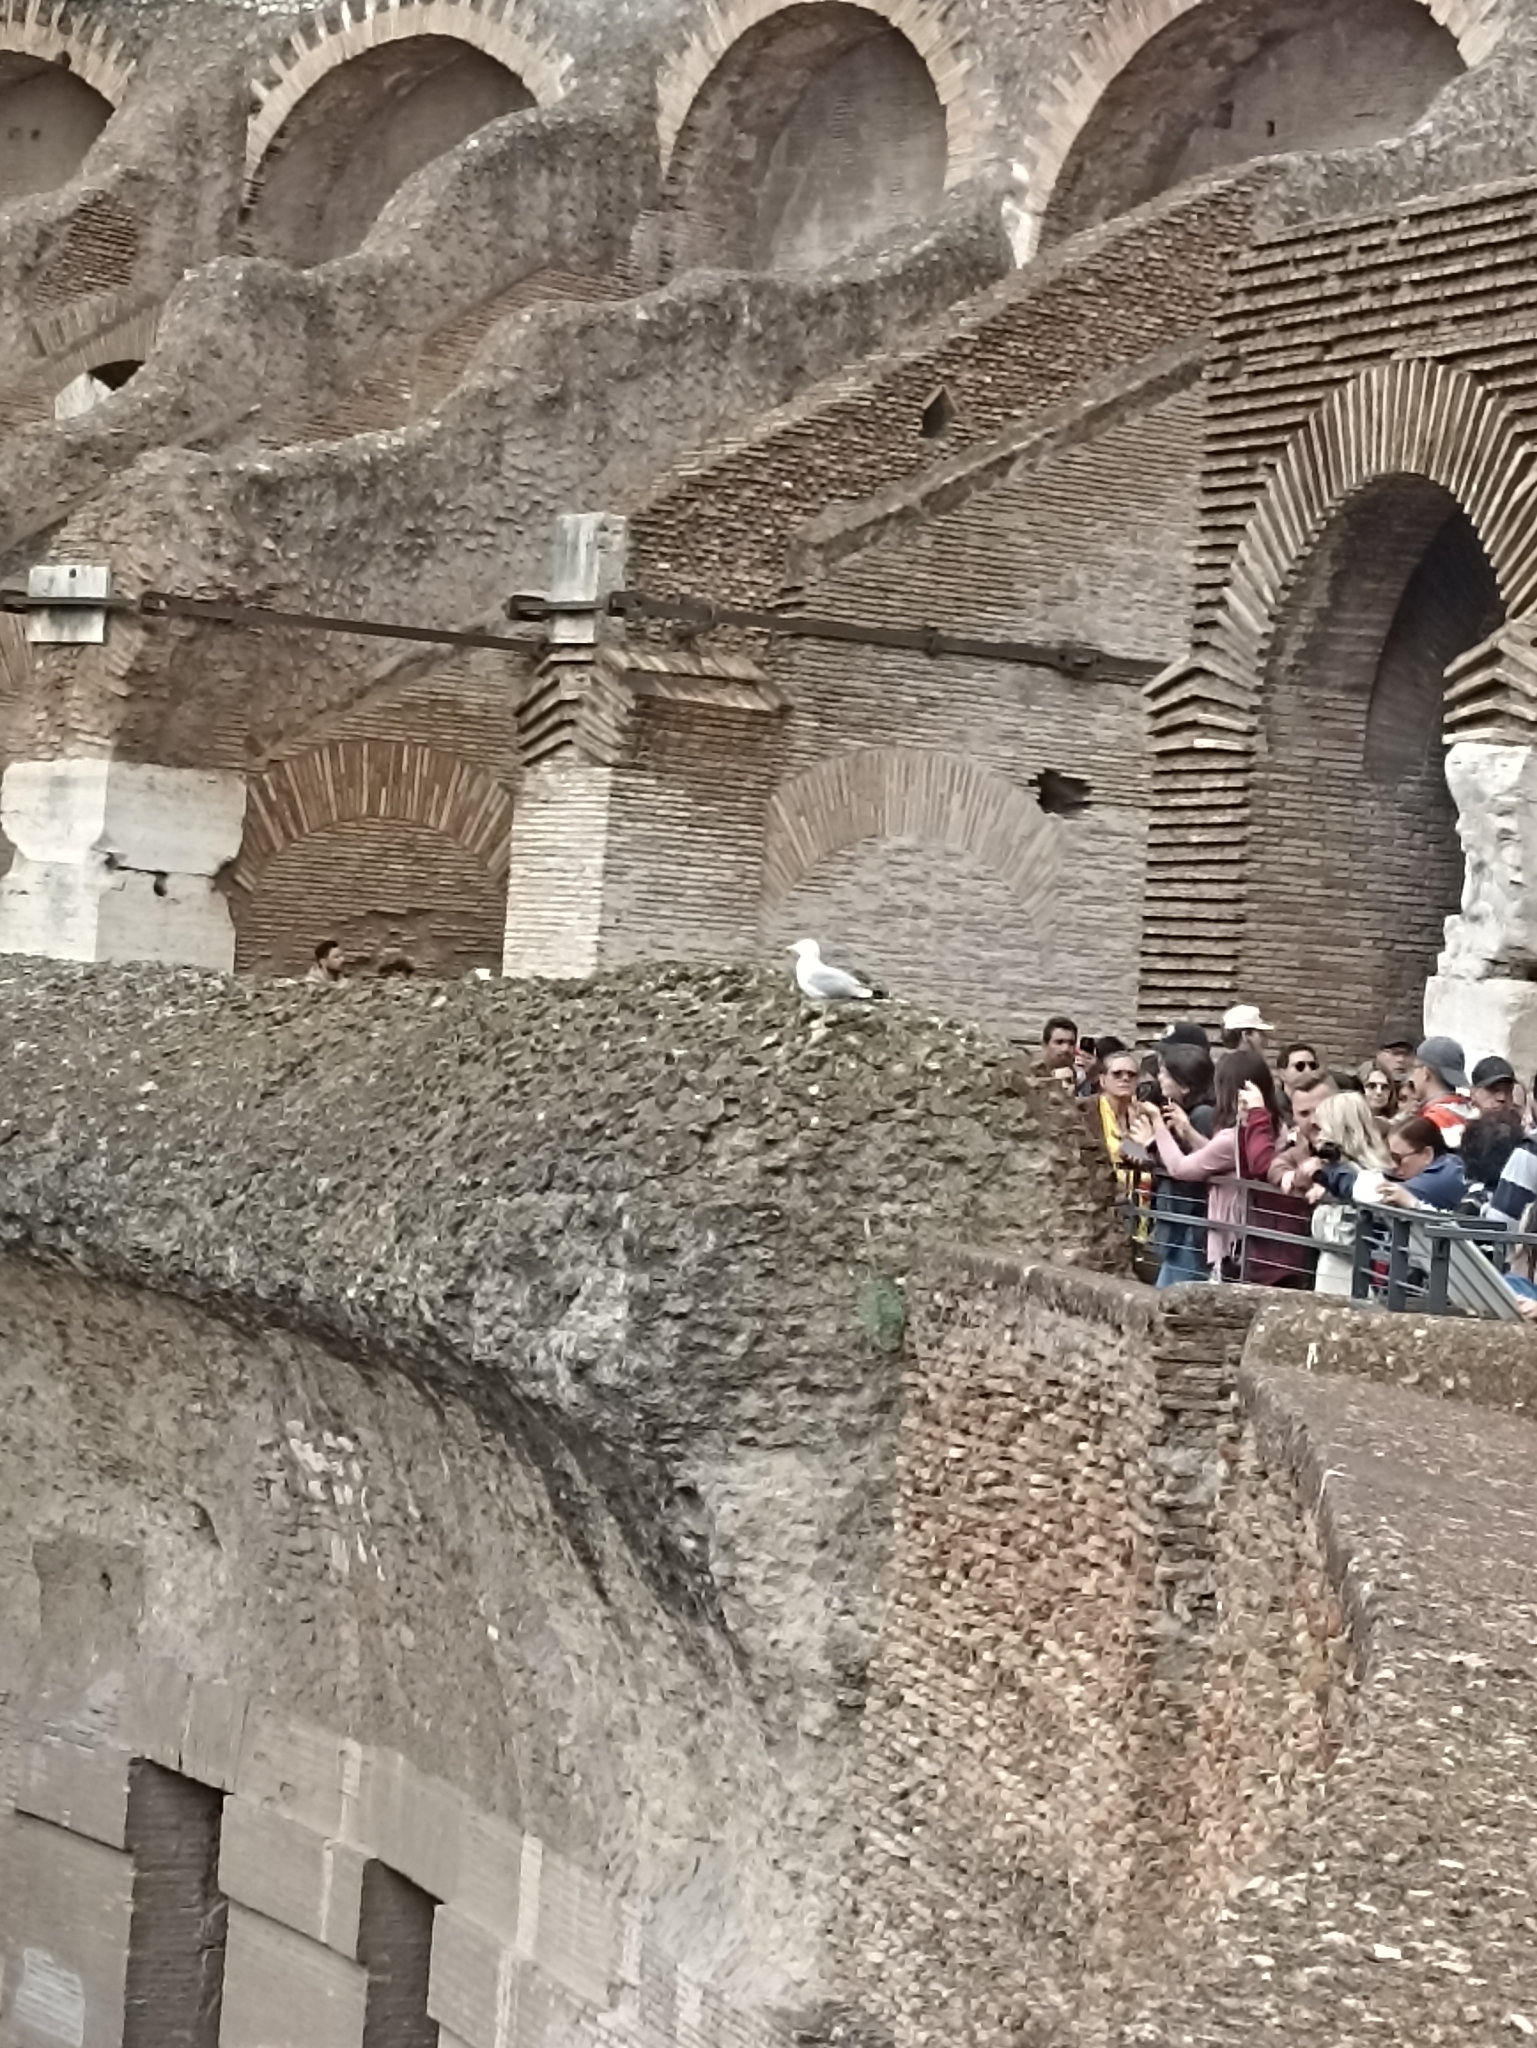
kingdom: Animalia
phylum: Chordata
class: Aves
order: Charadriiformes
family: Laridae
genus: Larus
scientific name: Larus michahellis
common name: Yellow-legged gull
